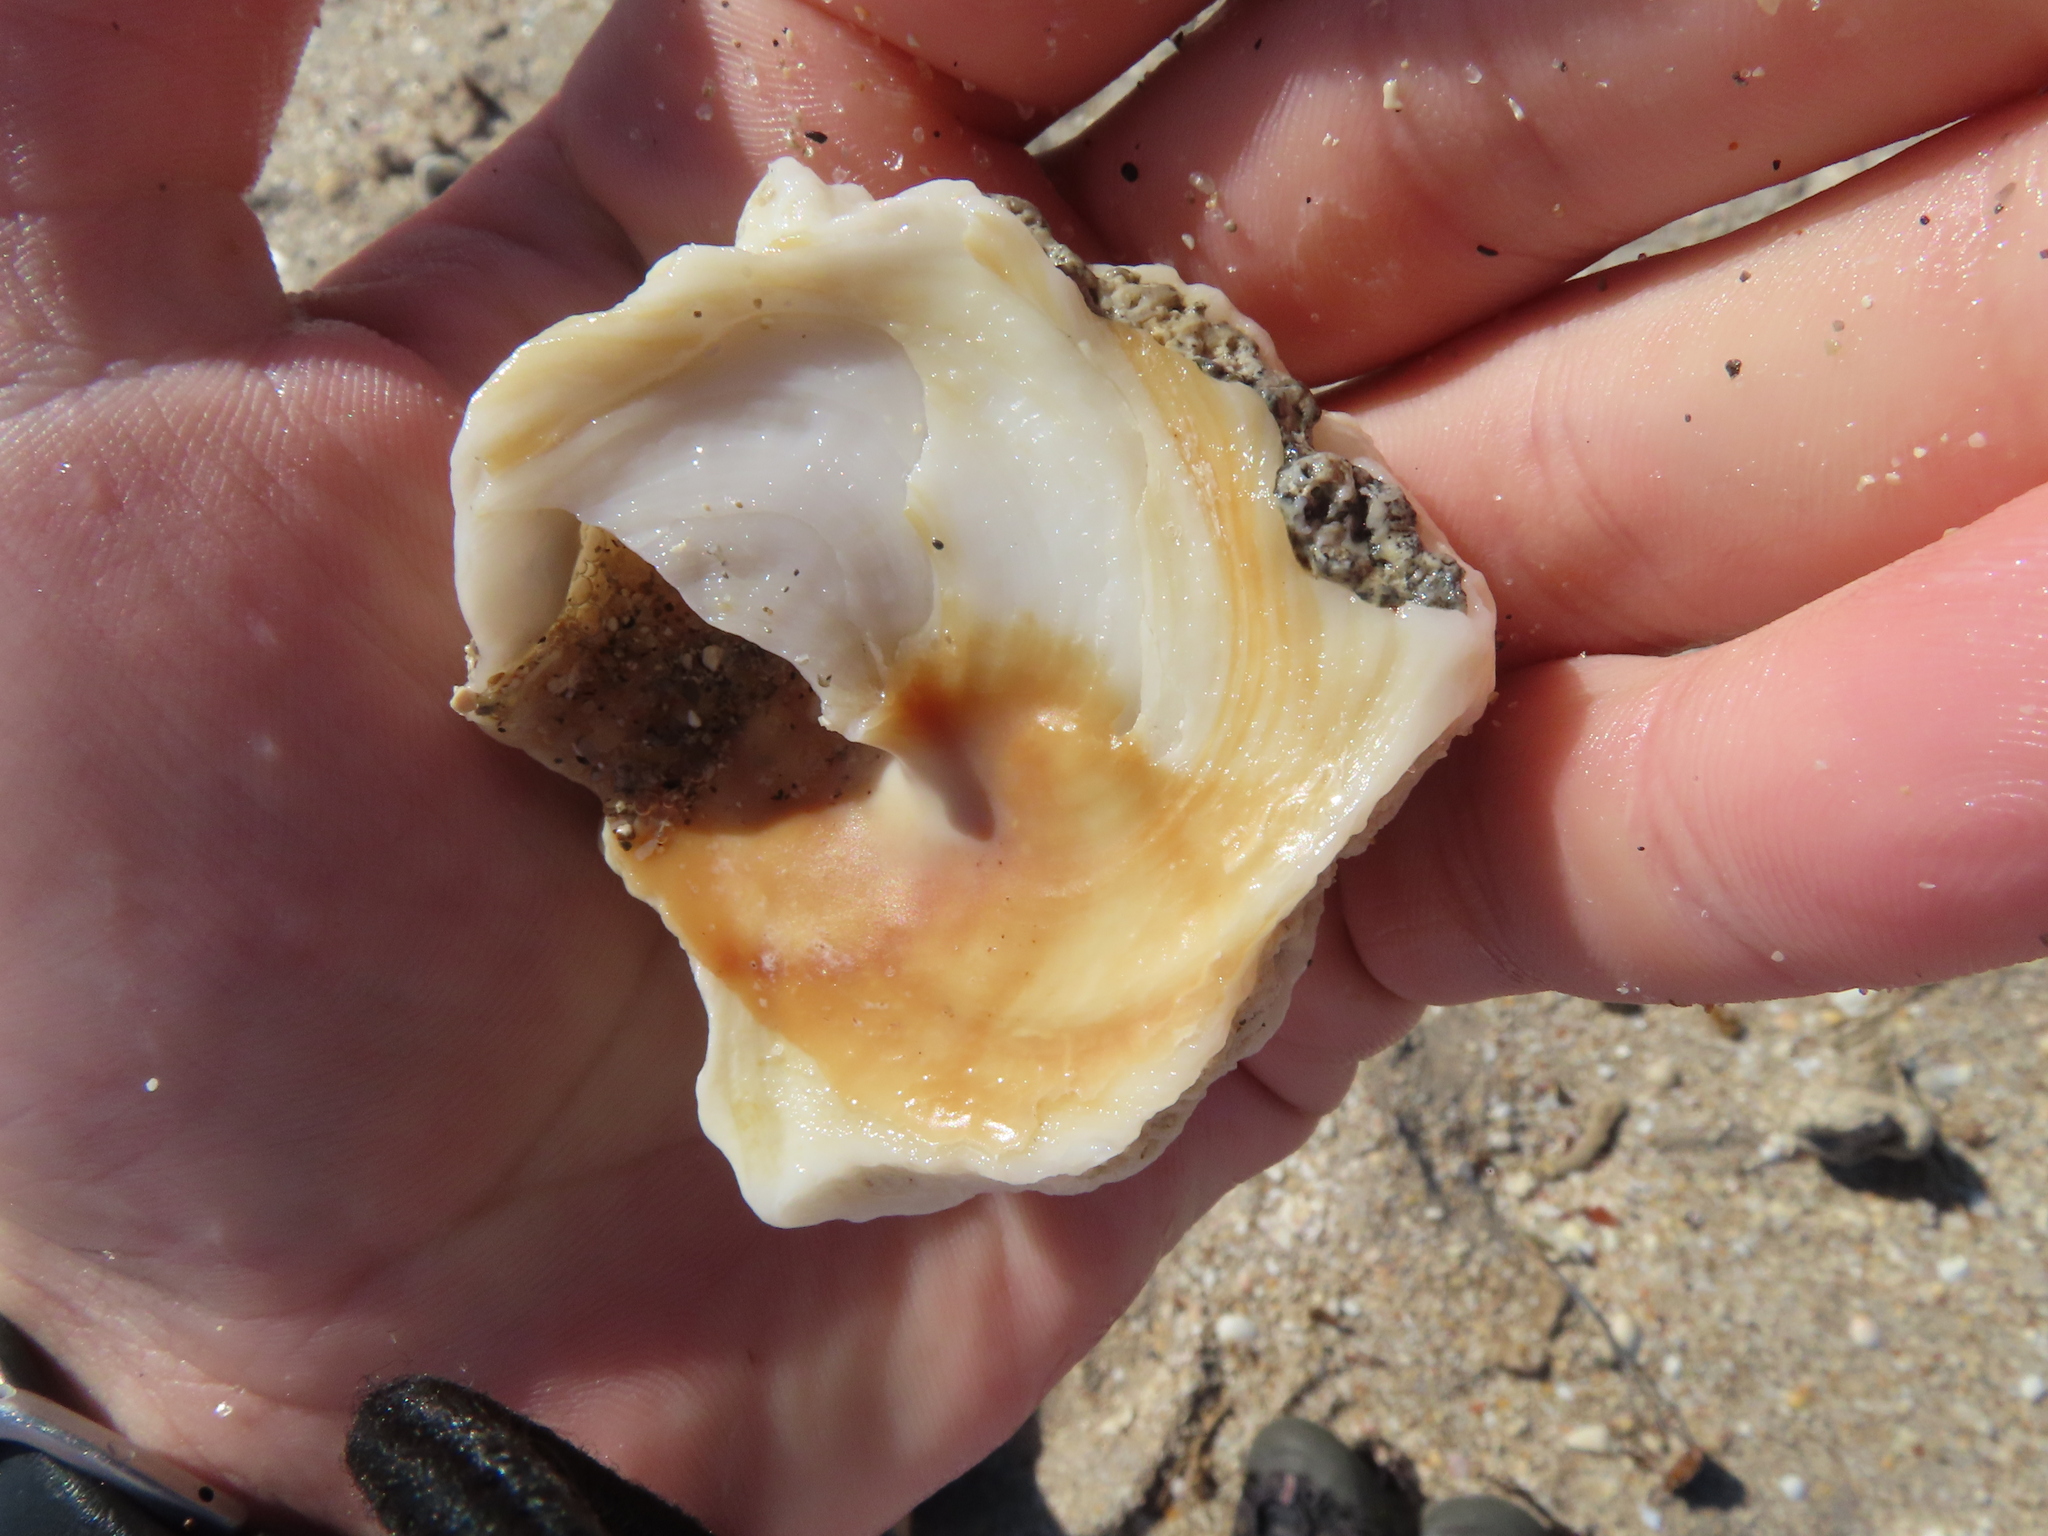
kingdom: Animalia
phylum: Mollusca
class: Gastropoda
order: Littorinimorpha
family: Xenophoridae
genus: Xenophora
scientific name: Xenophora conchyliophora
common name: American carriersnail
